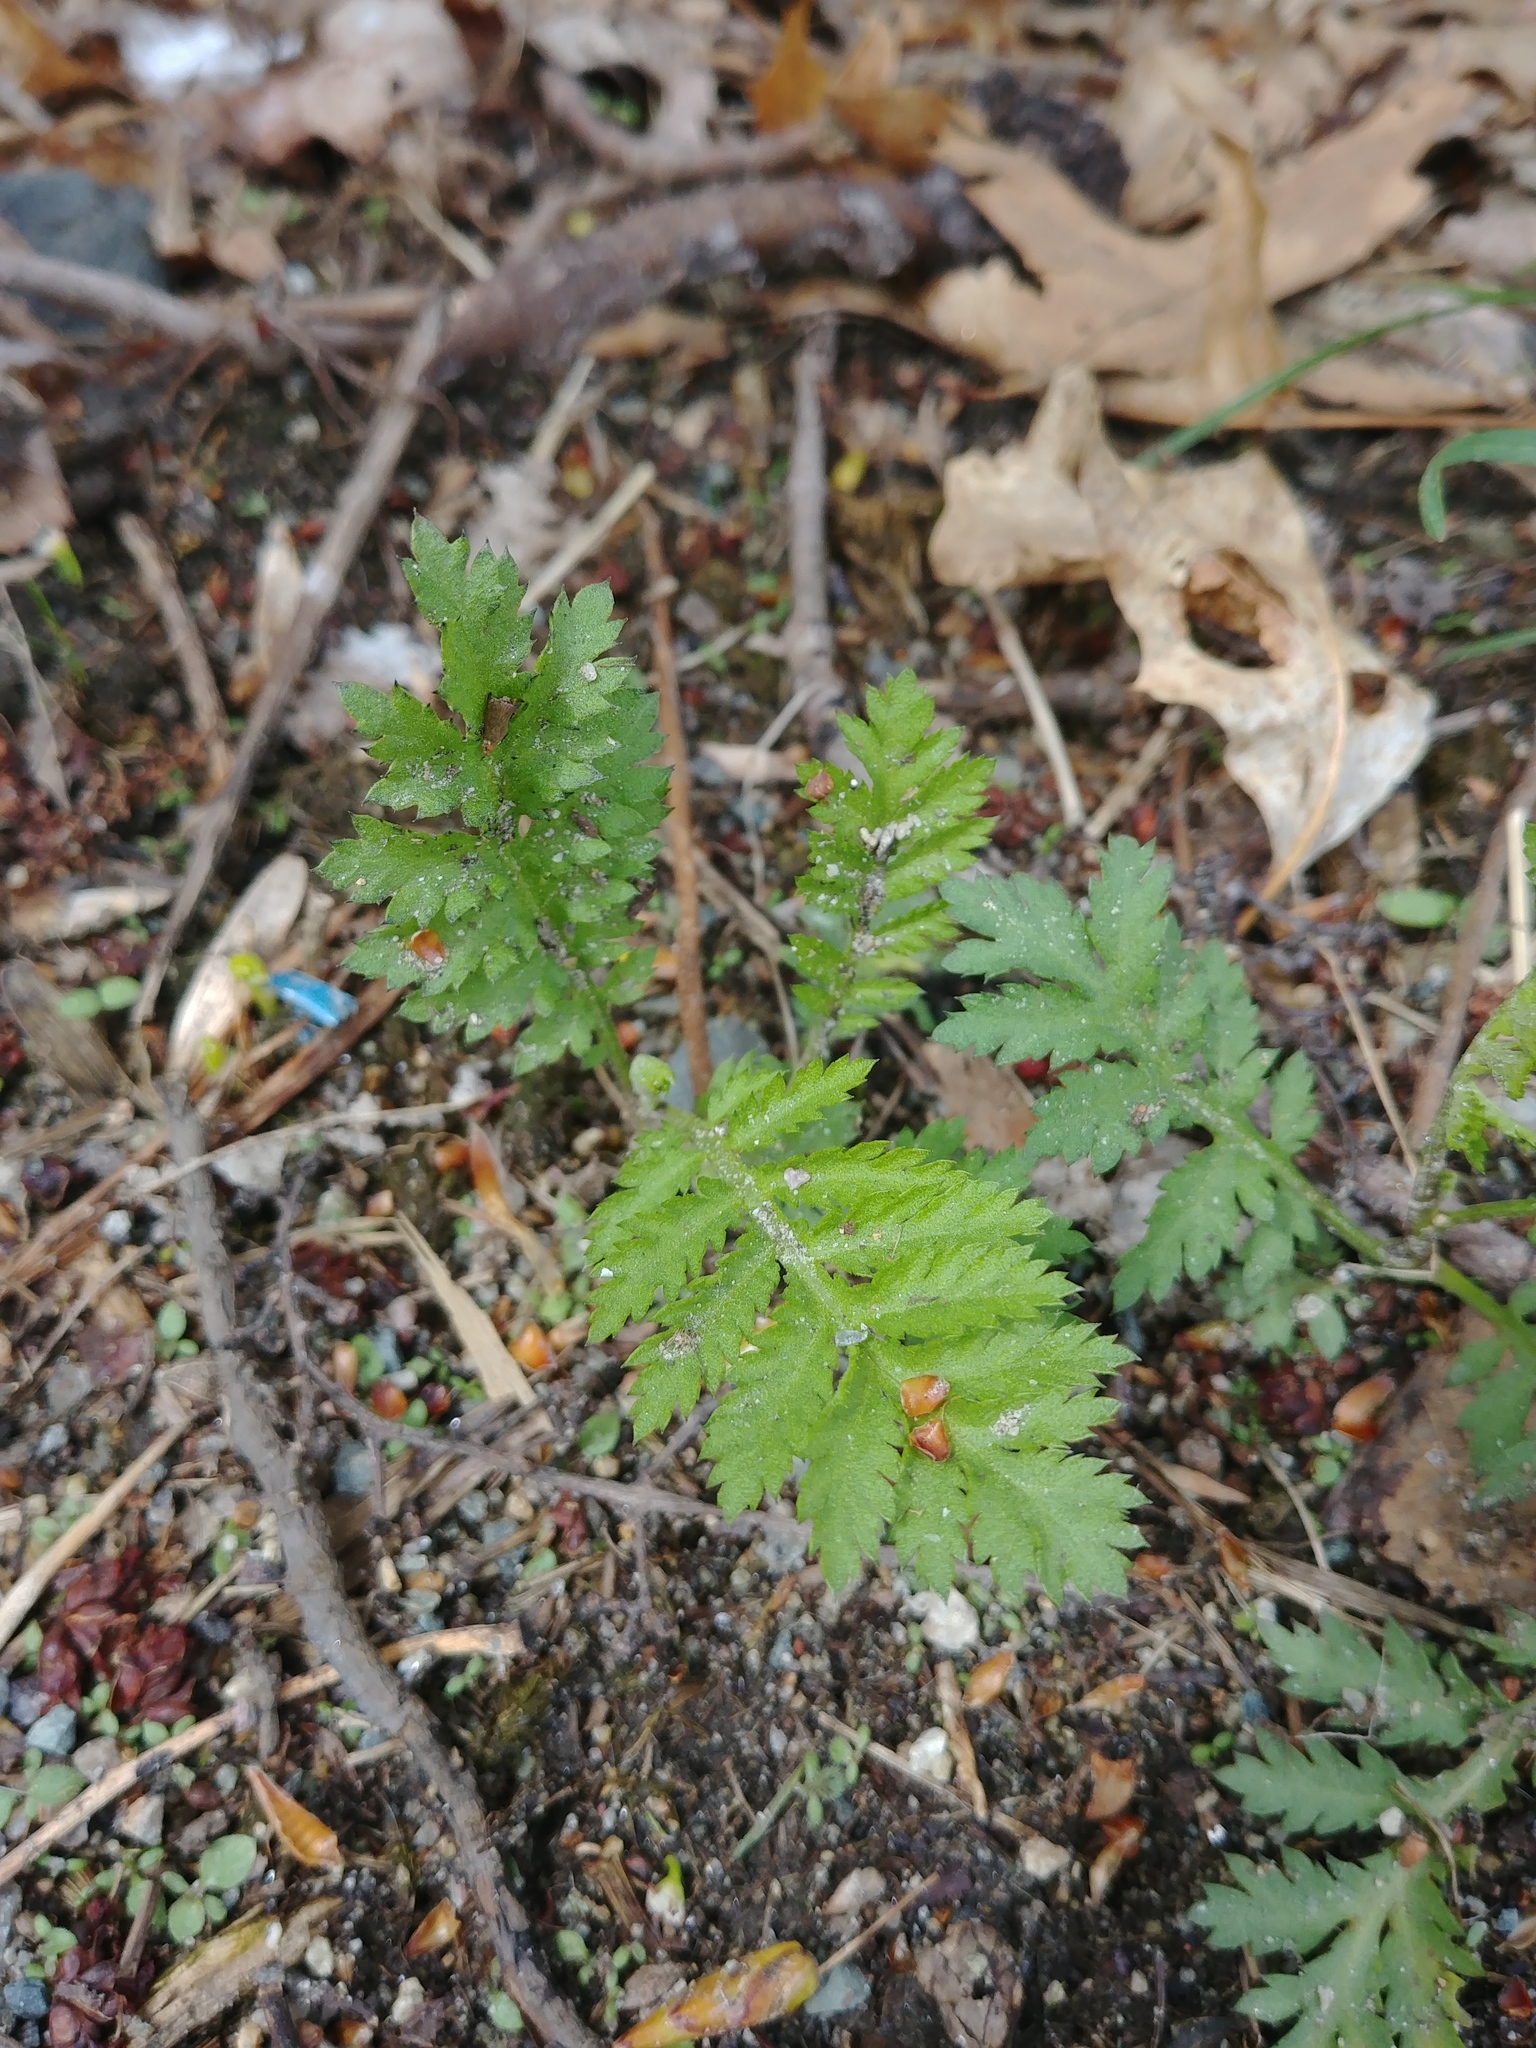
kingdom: Plantae
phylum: Tracheophyta
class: Magnoliopsida
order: Asterales
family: Asteraceae
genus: Tanacetum
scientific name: Tanacetum vulgare
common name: Common tansy
